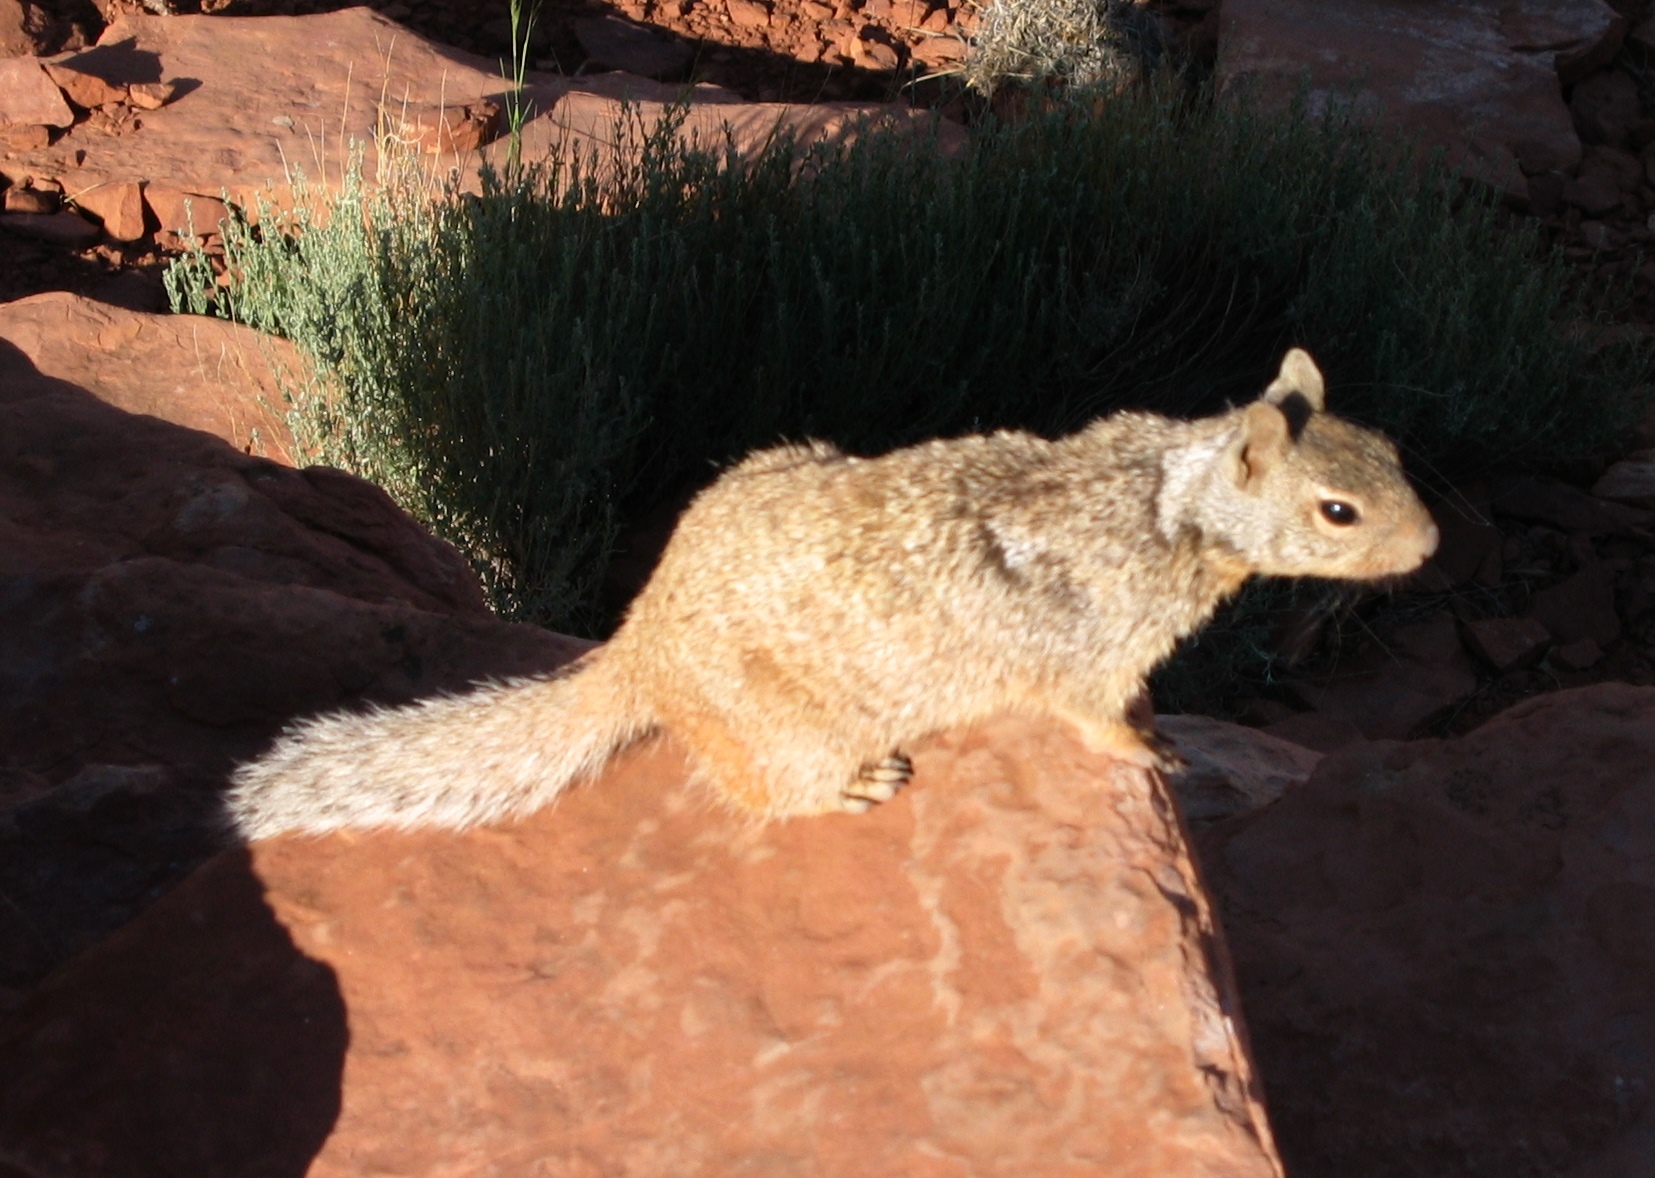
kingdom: Animalia
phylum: Chordata
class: Mammalia
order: Rodentia
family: Sciuridae
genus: Otospermophilus
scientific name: Otospermophilus variegatus
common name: Rock squirrel
